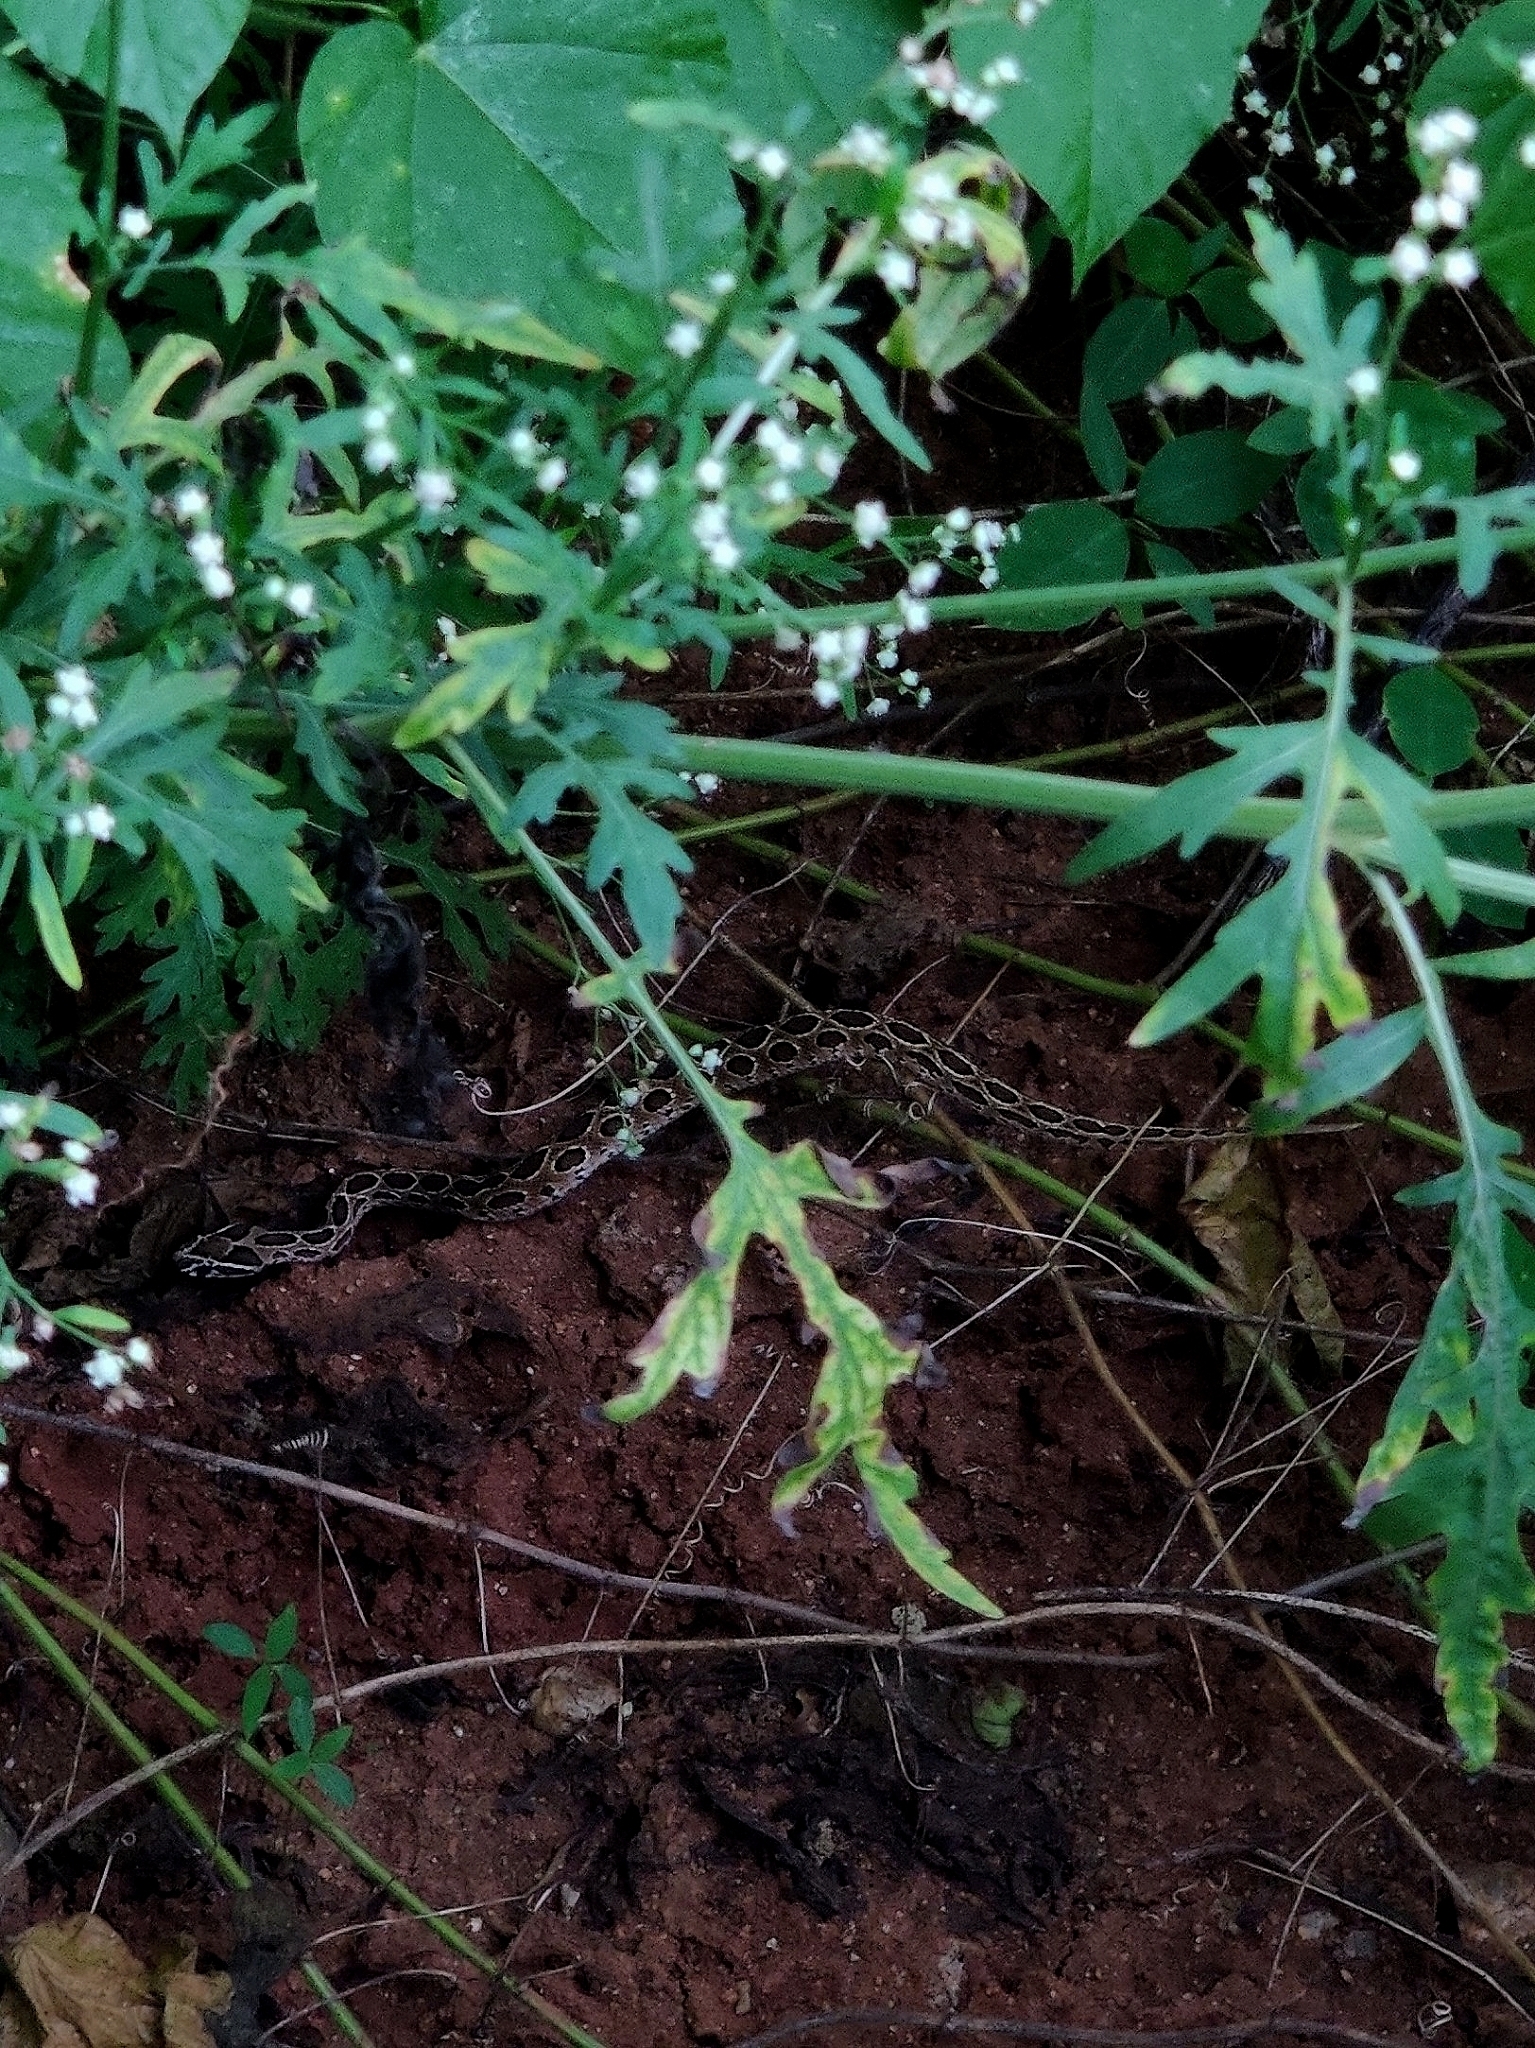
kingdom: Animalia
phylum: Chordata
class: Squamata
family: Viperidae
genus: Daboia
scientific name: Daboia russelii
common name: Western russel’s viper
